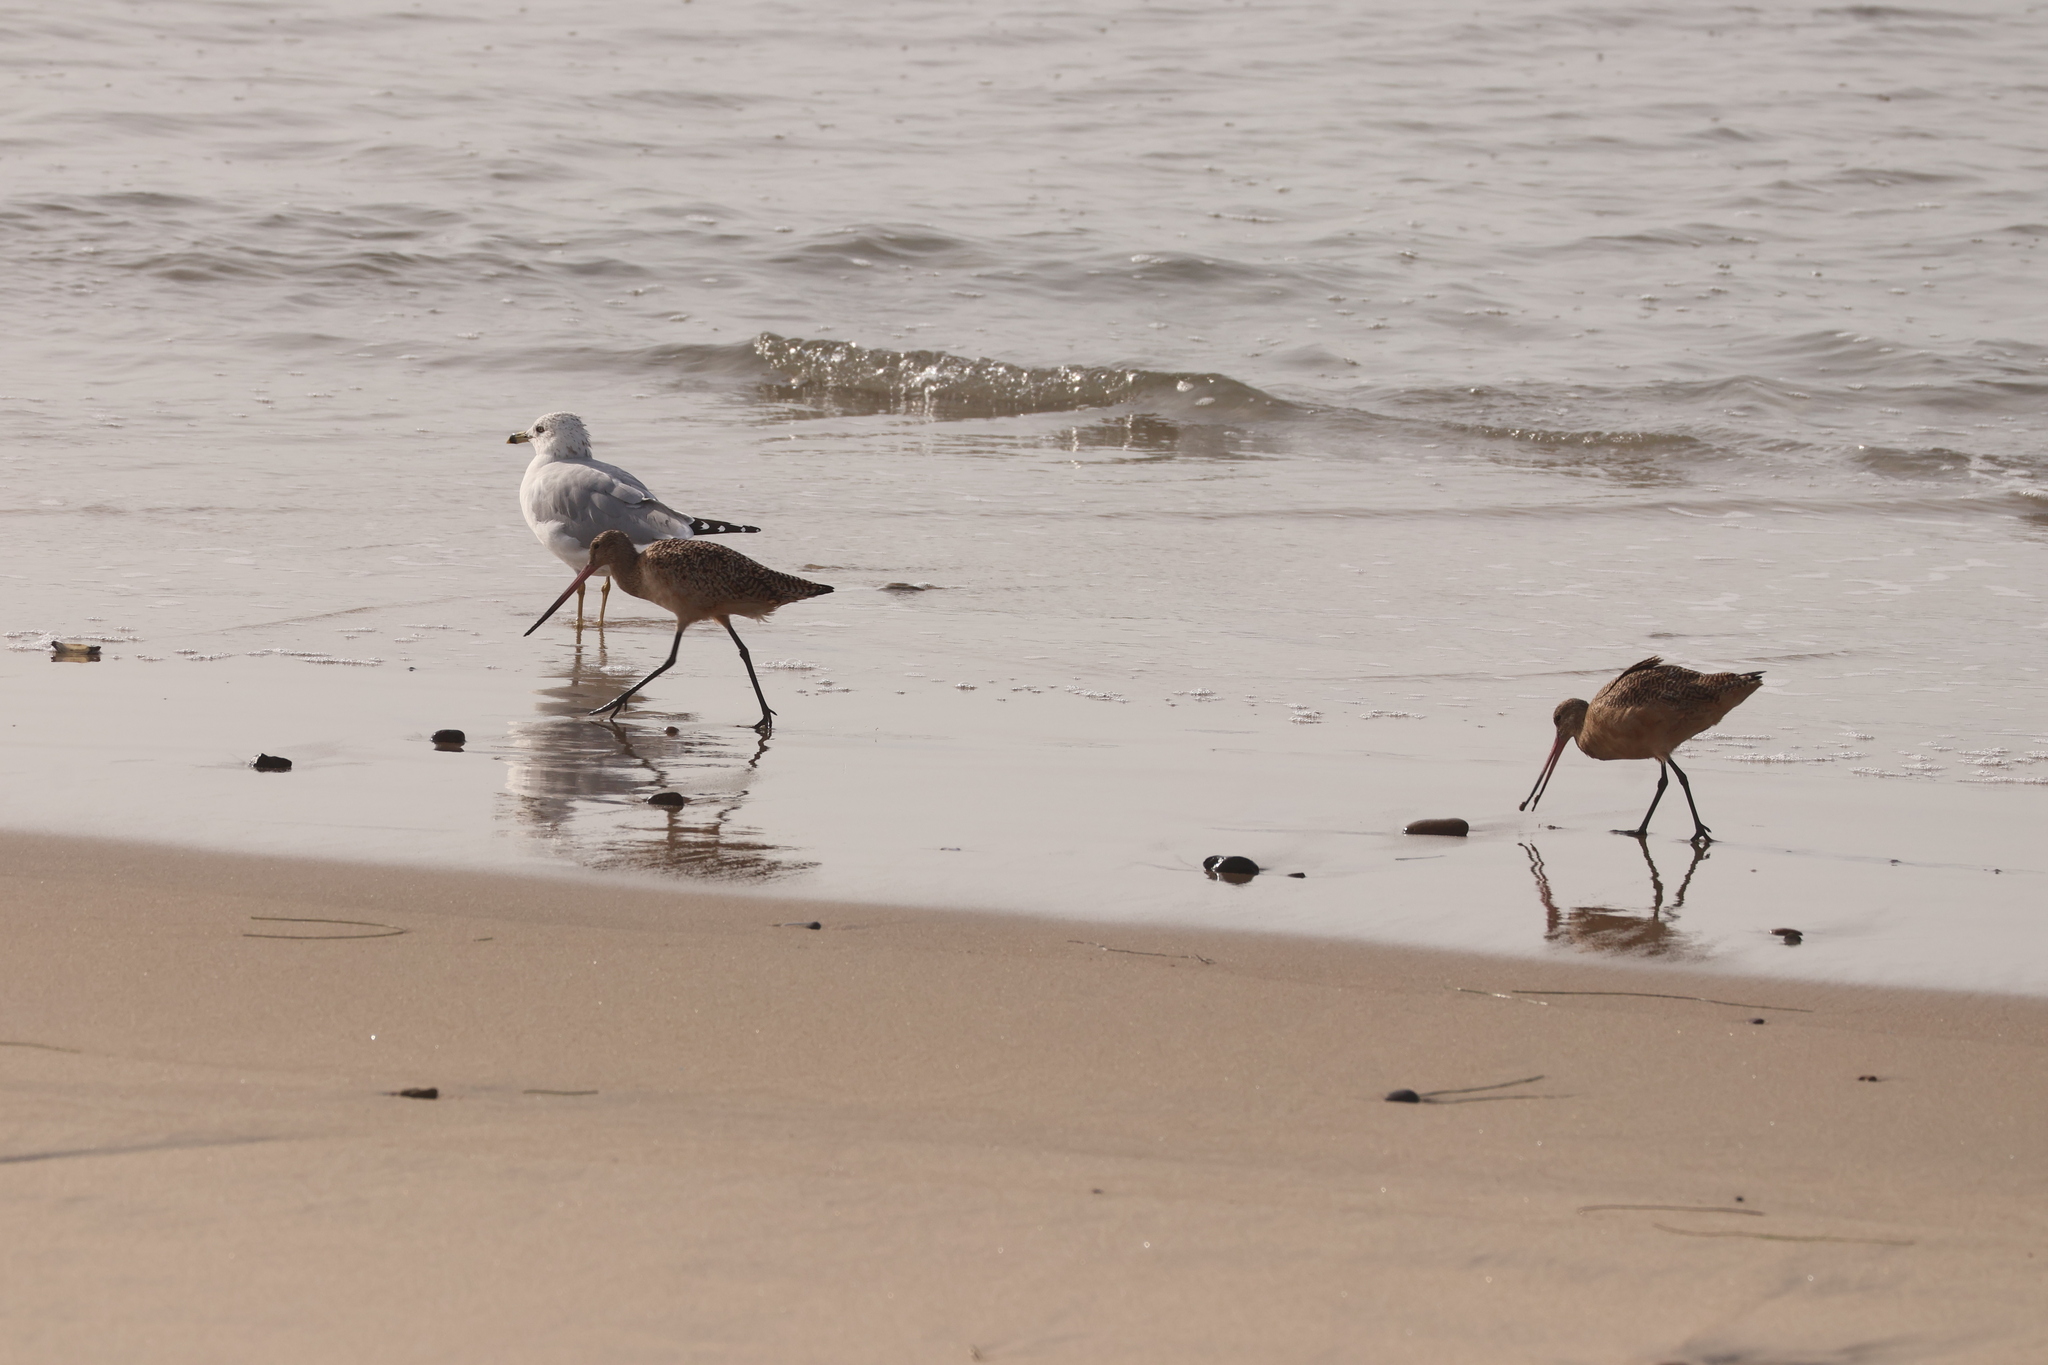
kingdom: Animalia
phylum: Chordata
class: Aves
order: Charadriiformes
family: Scolopacidae
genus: Limosa
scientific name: Limosa fedoa
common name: Marbled godwit
